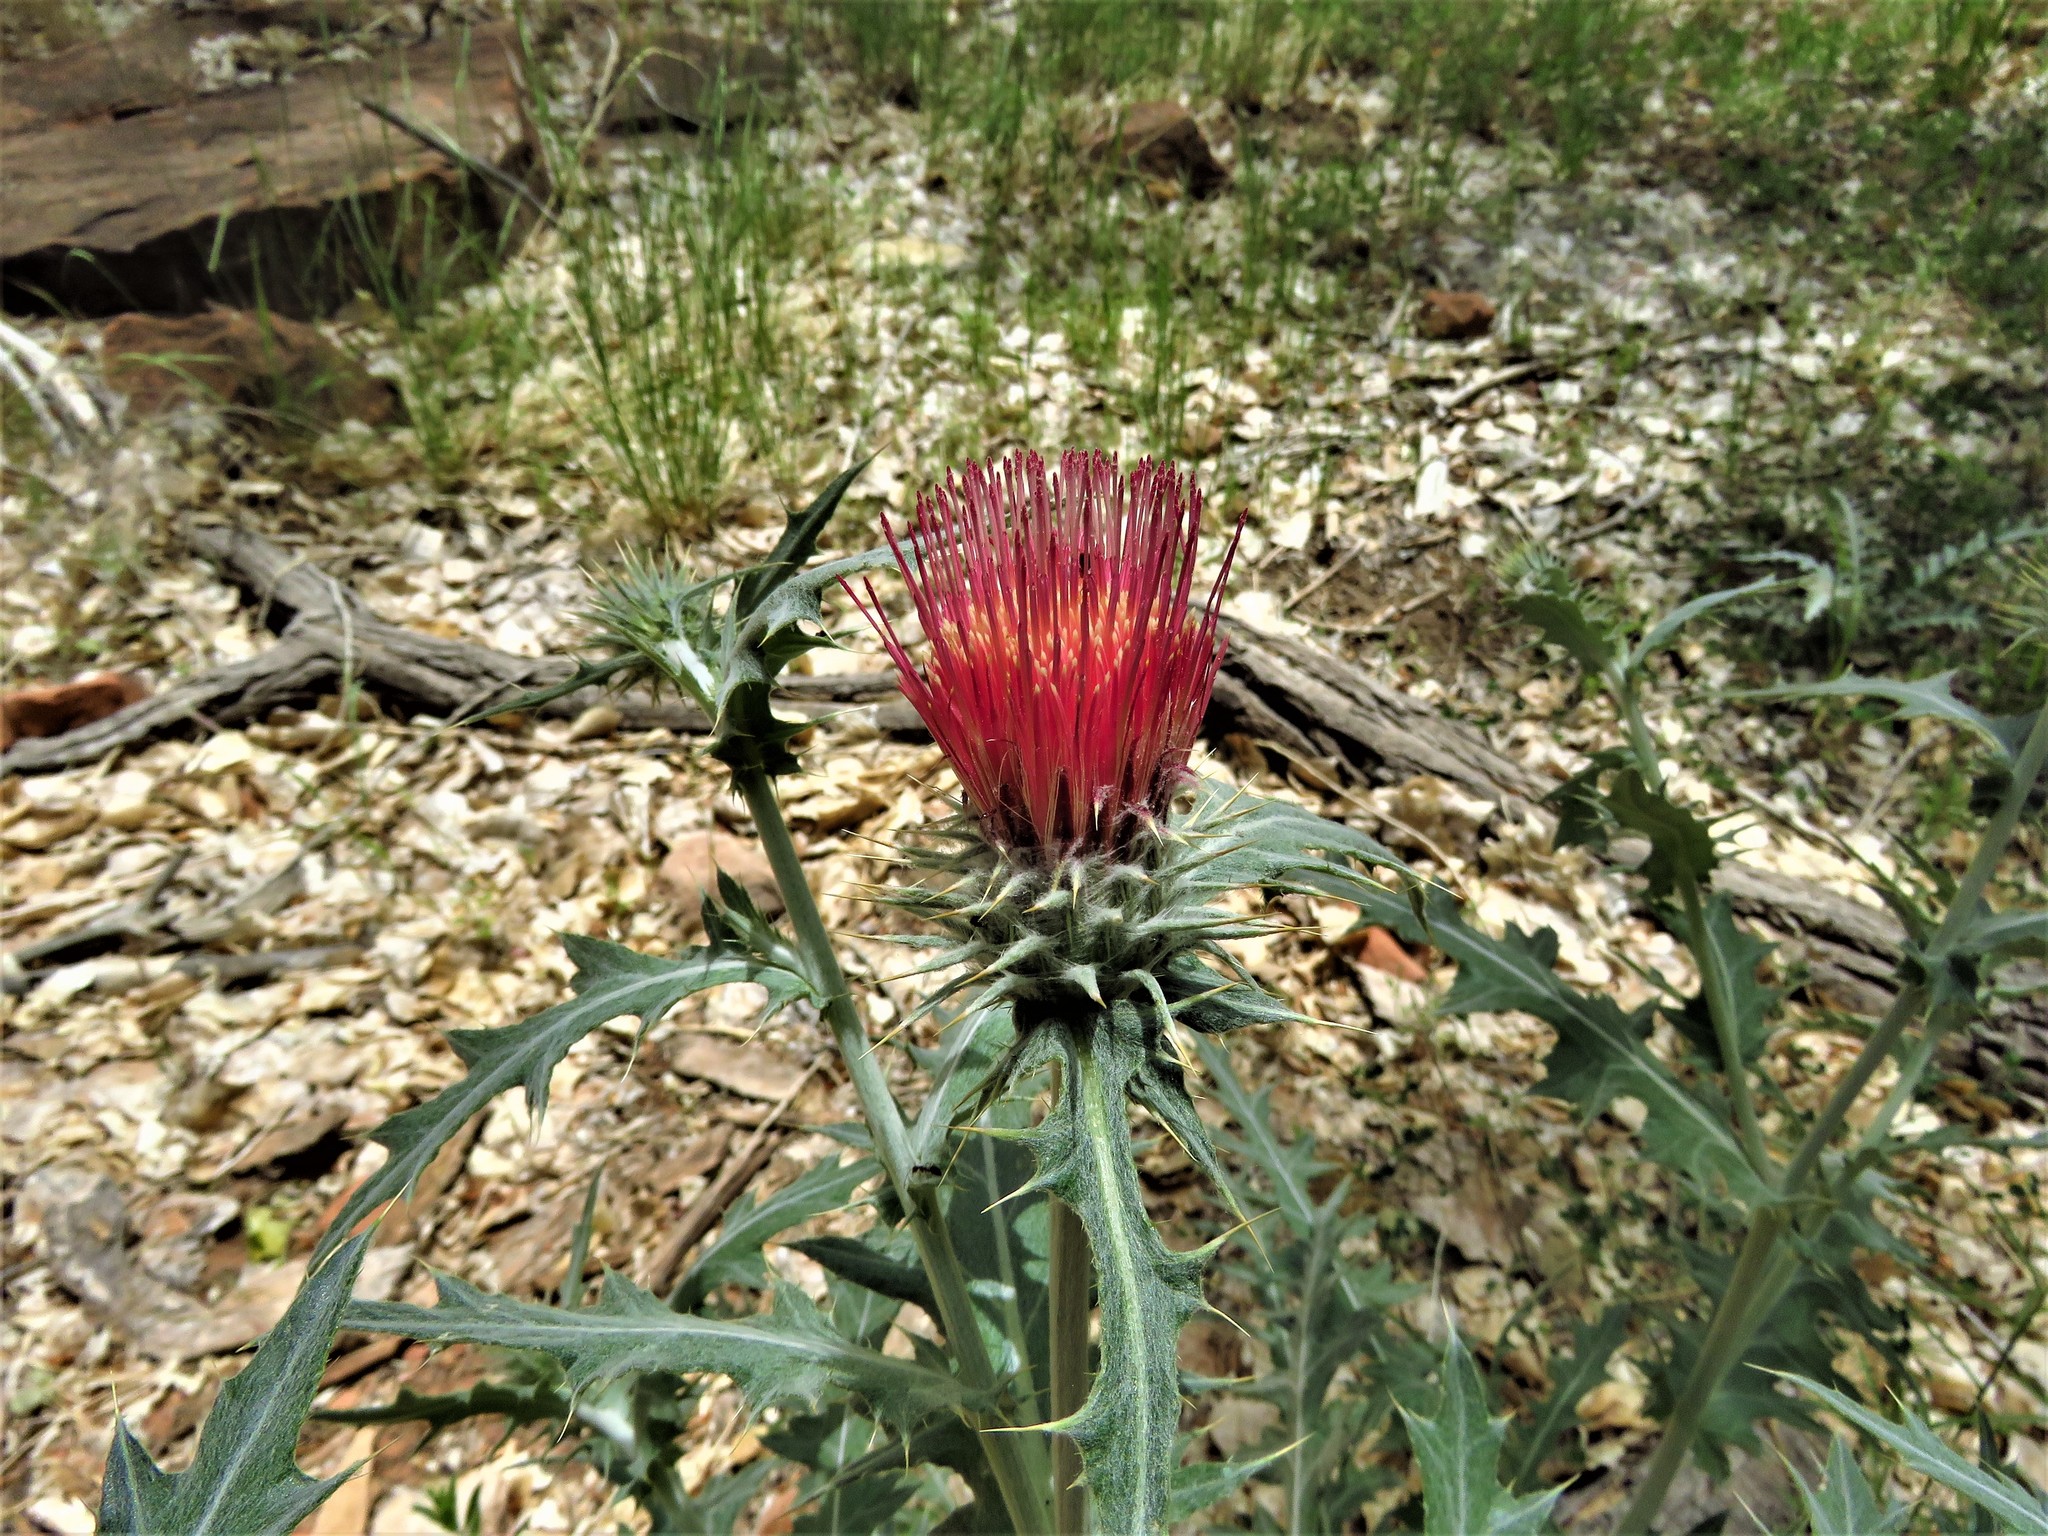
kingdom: Plantae
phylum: Tracheophyta
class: Magnoliopsida
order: Asterales
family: Asteraceae
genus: Cirsium
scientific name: Cirsium arizonicum
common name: Arizona thistle
